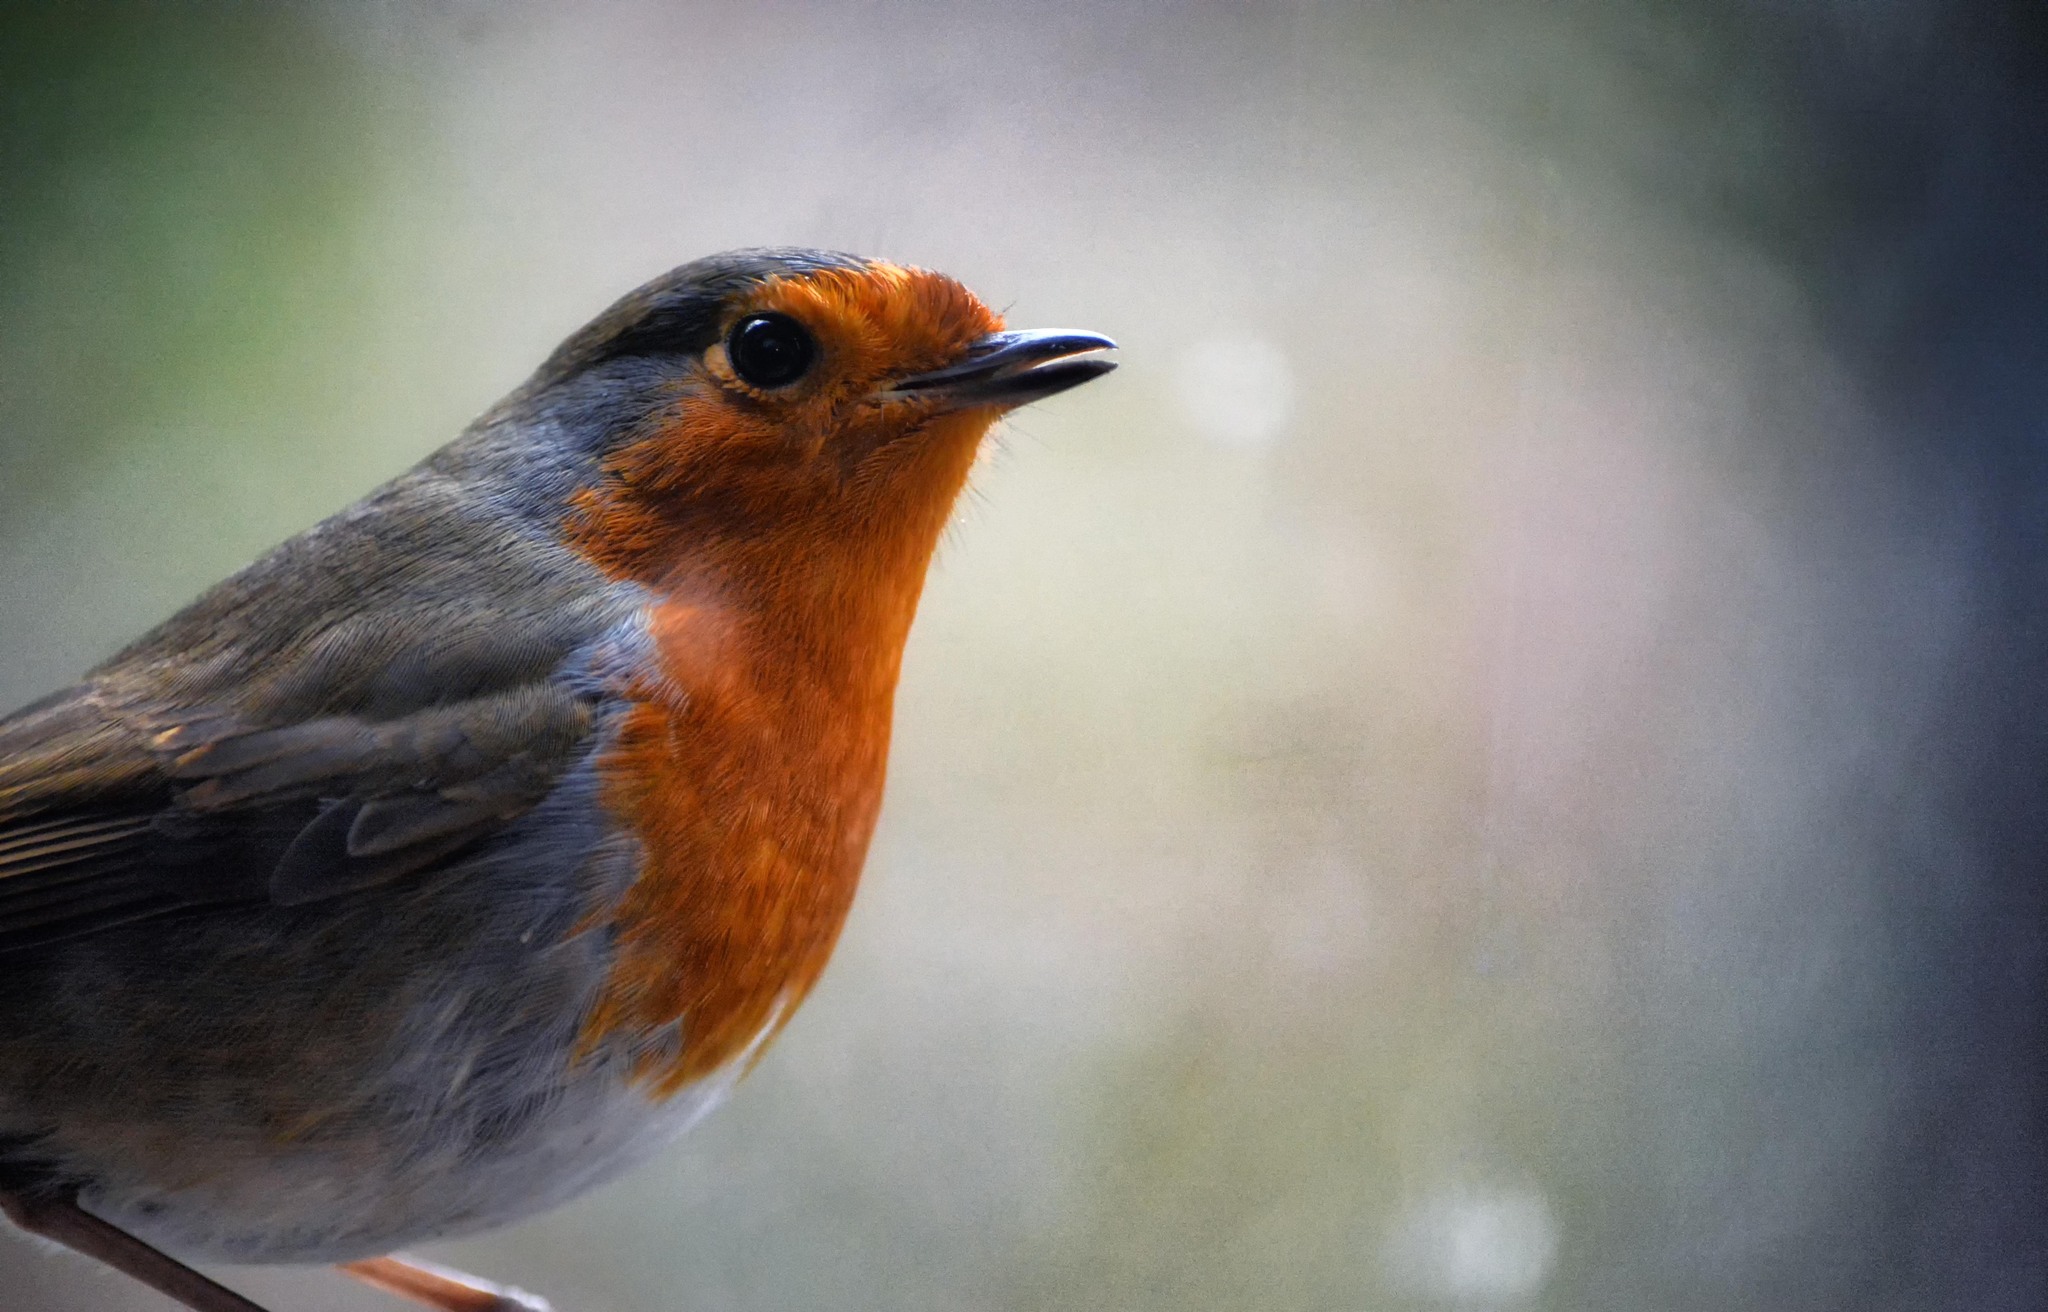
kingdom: Animalia
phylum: Chordata
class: Aves
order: Passeriformes
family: Muscicapidae
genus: Erithacus
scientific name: Erithacus rubecula
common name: European robin
